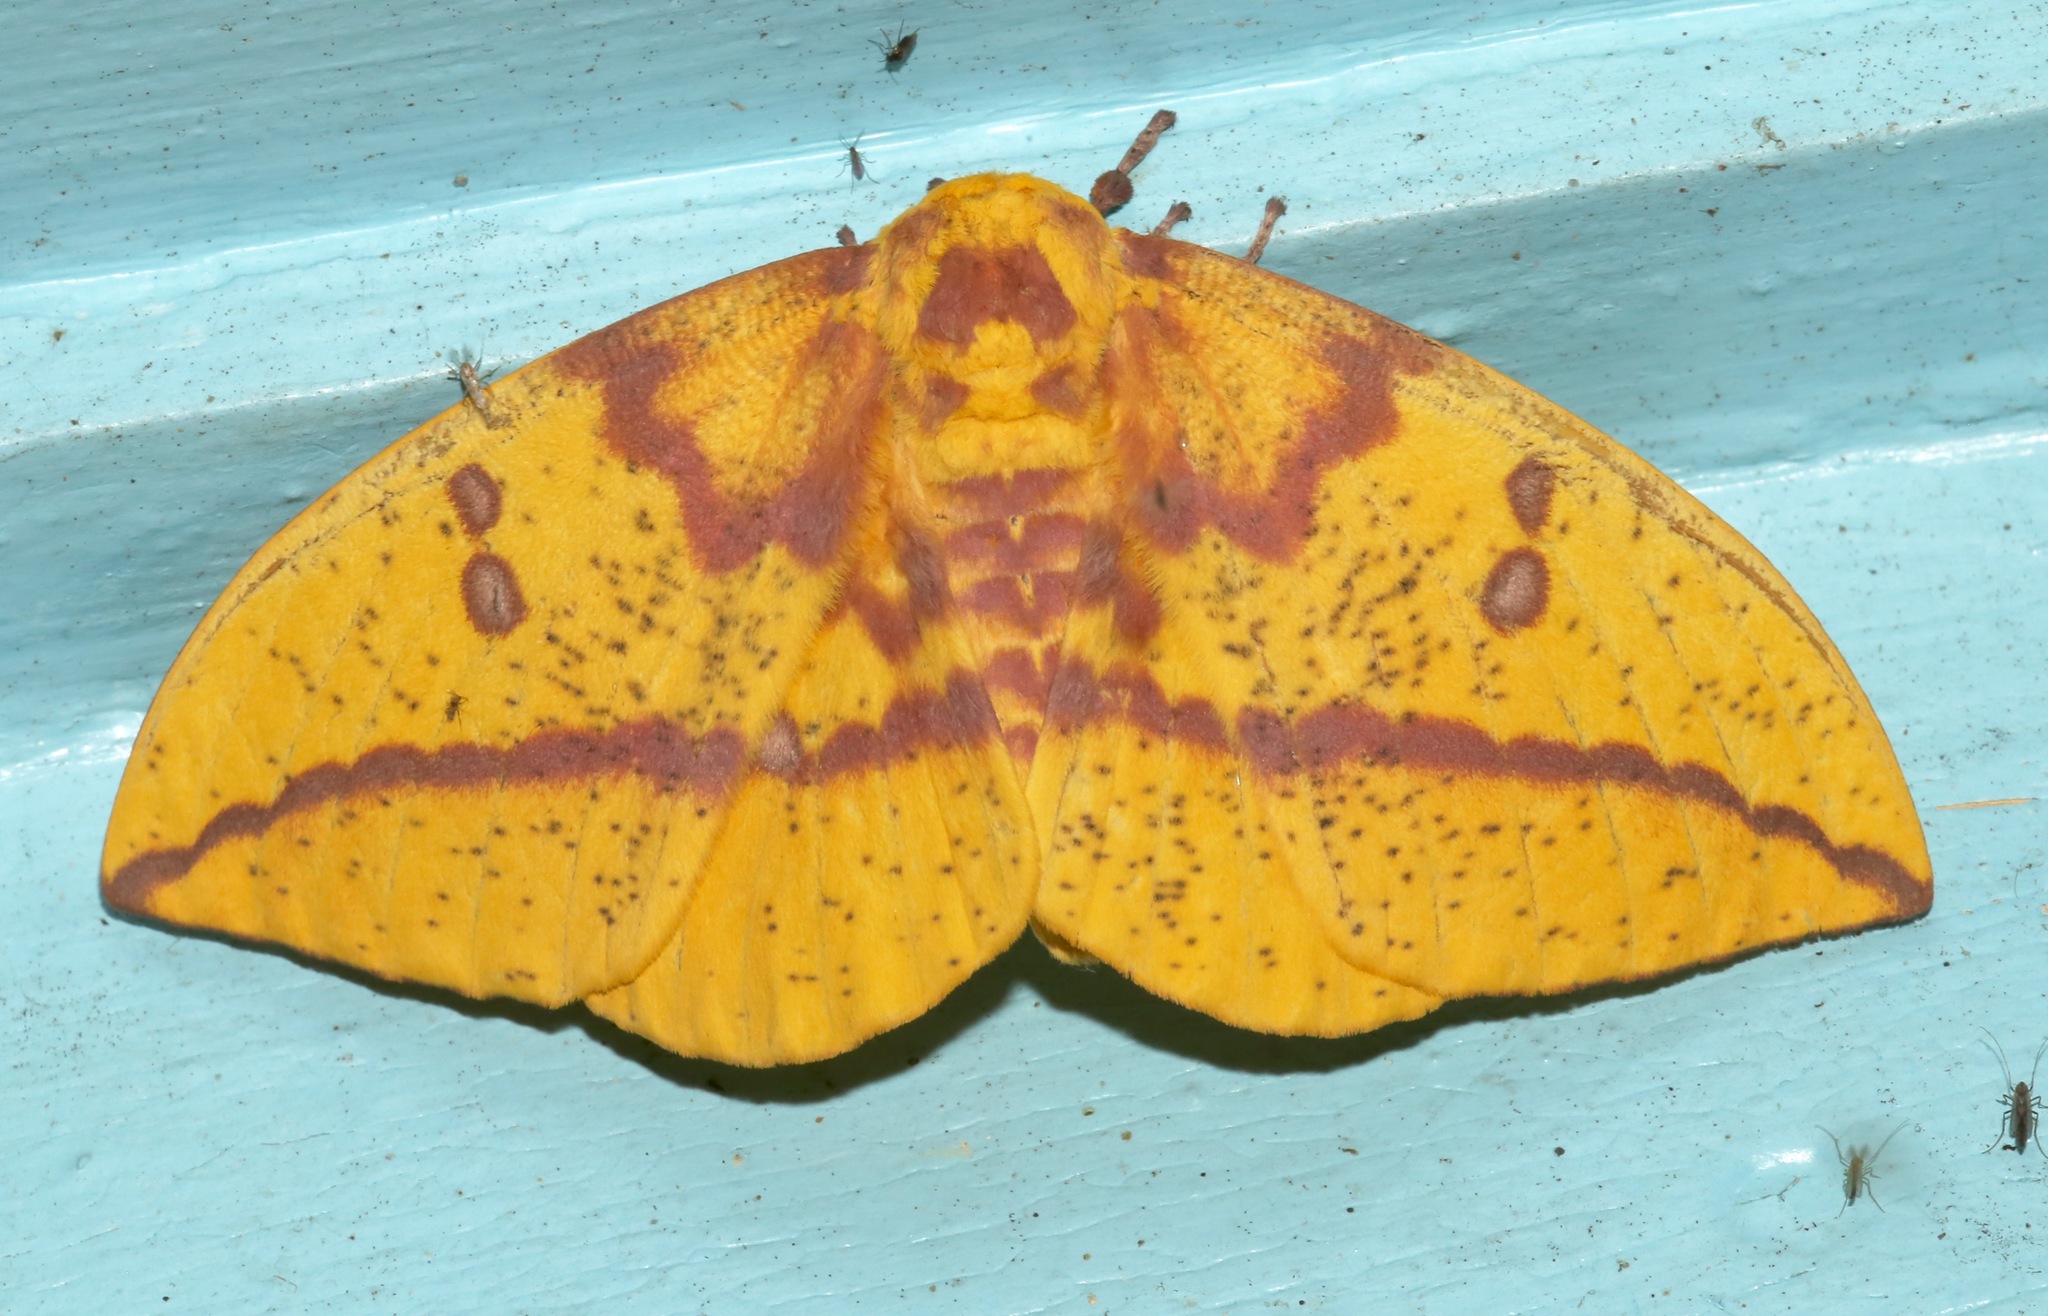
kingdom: Animalia
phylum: Arthropoda
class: Insecta
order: Lepidoptera
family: Saturniidae
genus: Eacles
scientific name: Eacles imperialis
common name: Imperial moth
